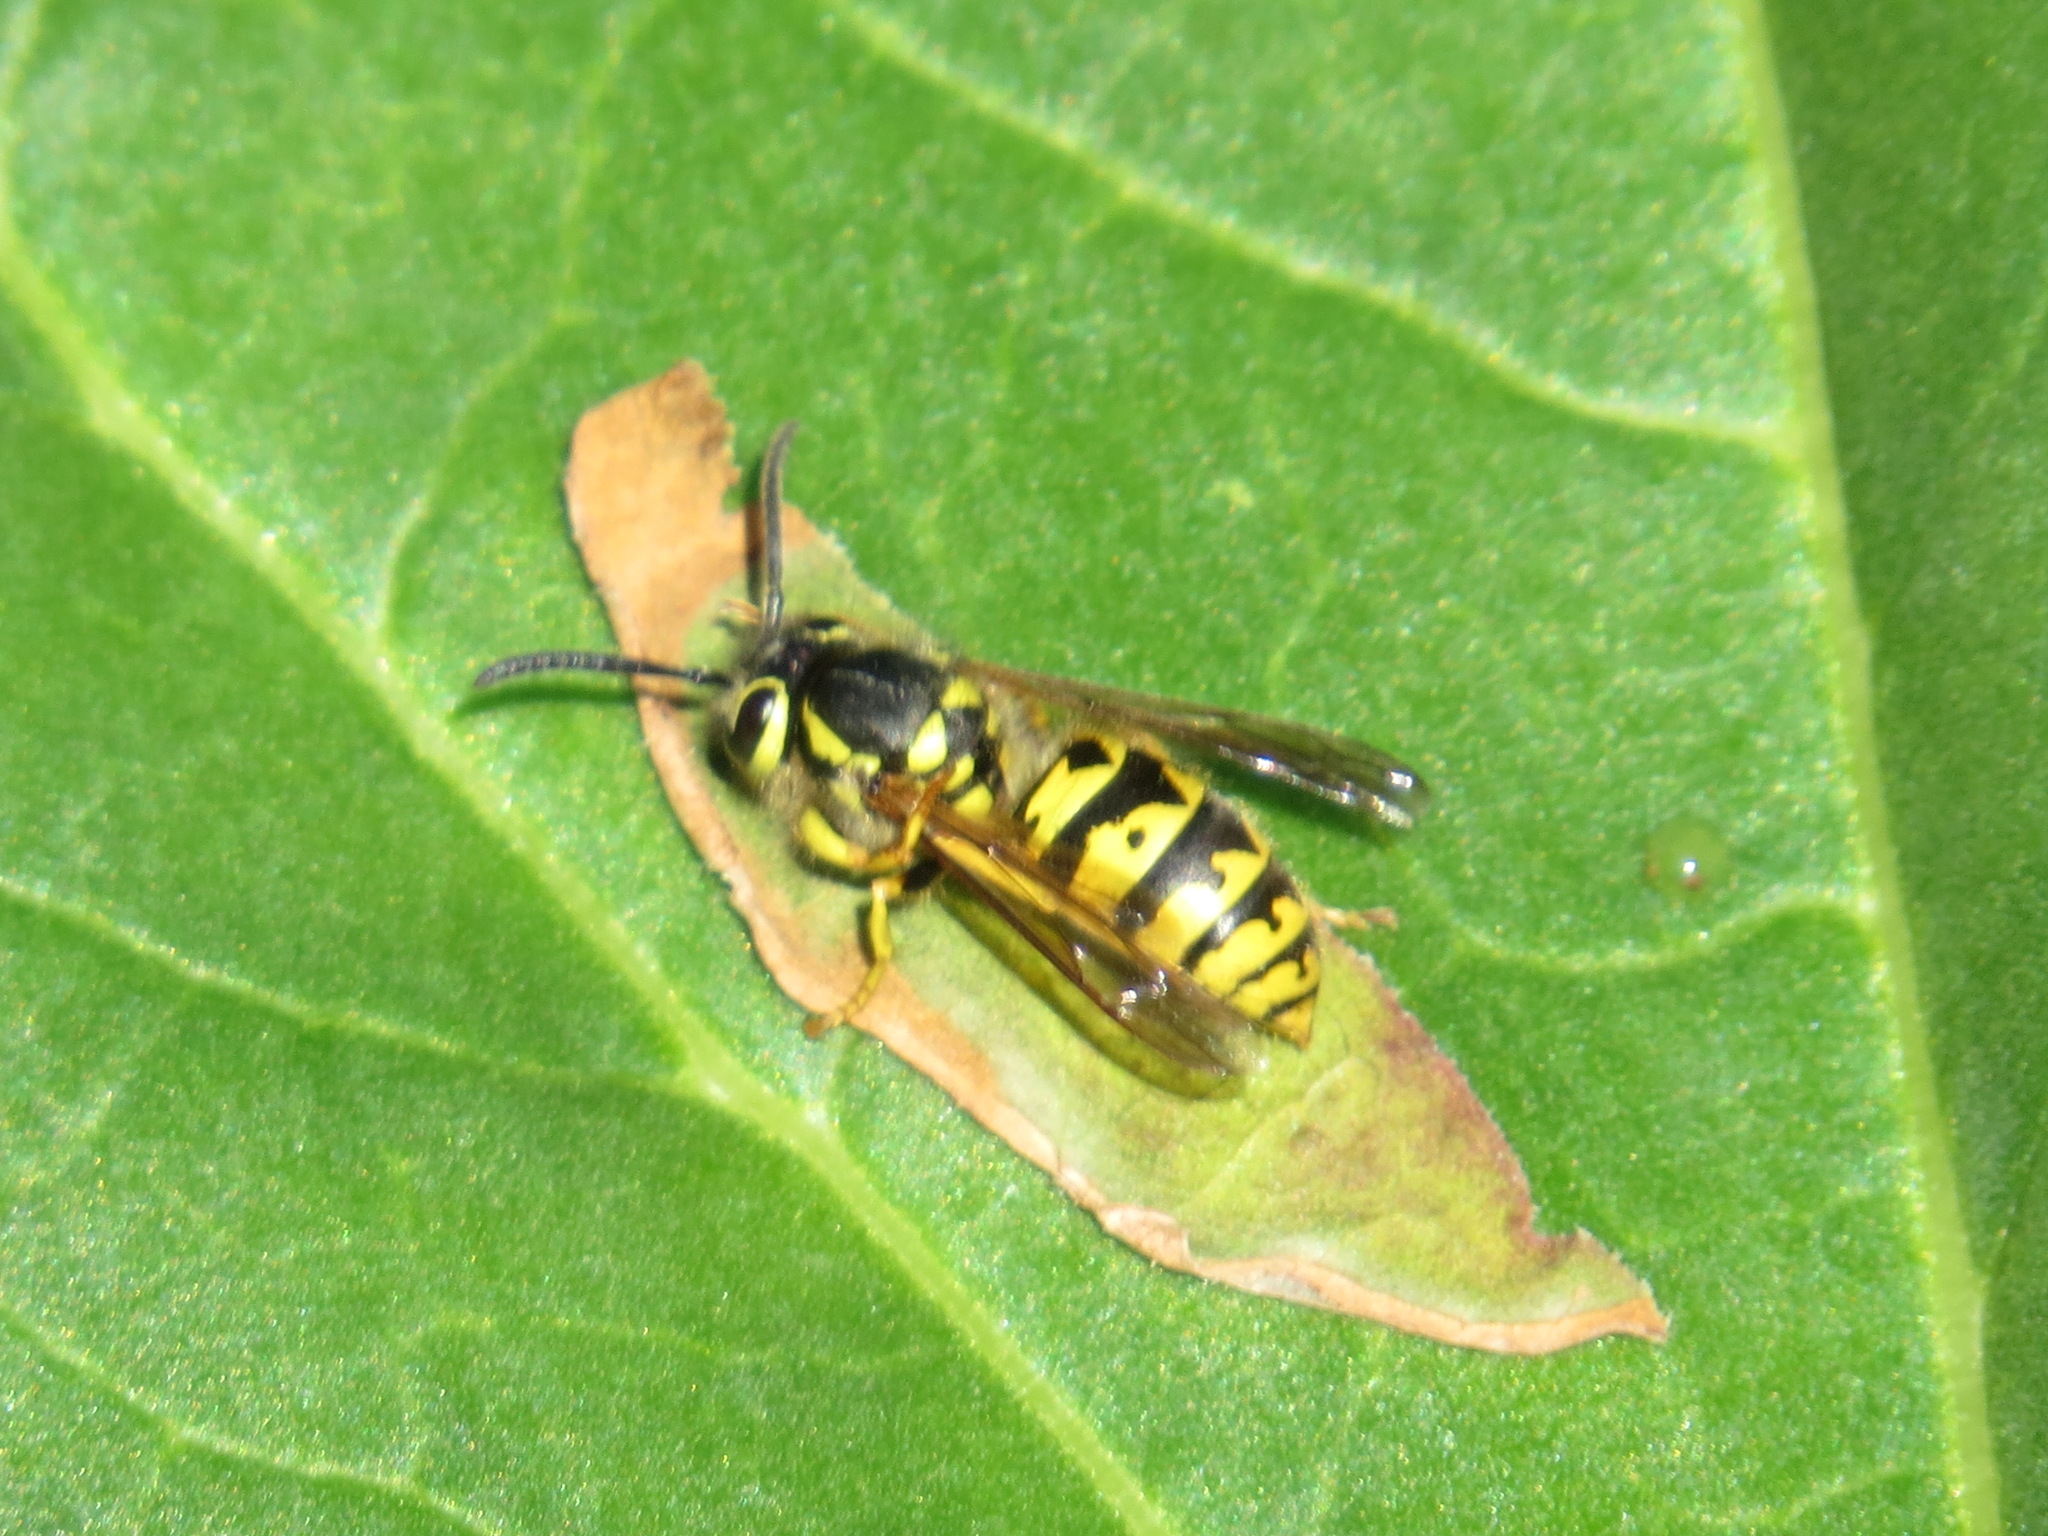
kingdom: Animalia
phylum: Arthropoda
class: Insecta
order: Hymenoptera
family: Vespidae
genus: Vespula
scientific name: Vespula pensylvanica
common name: Western yellowjacket
